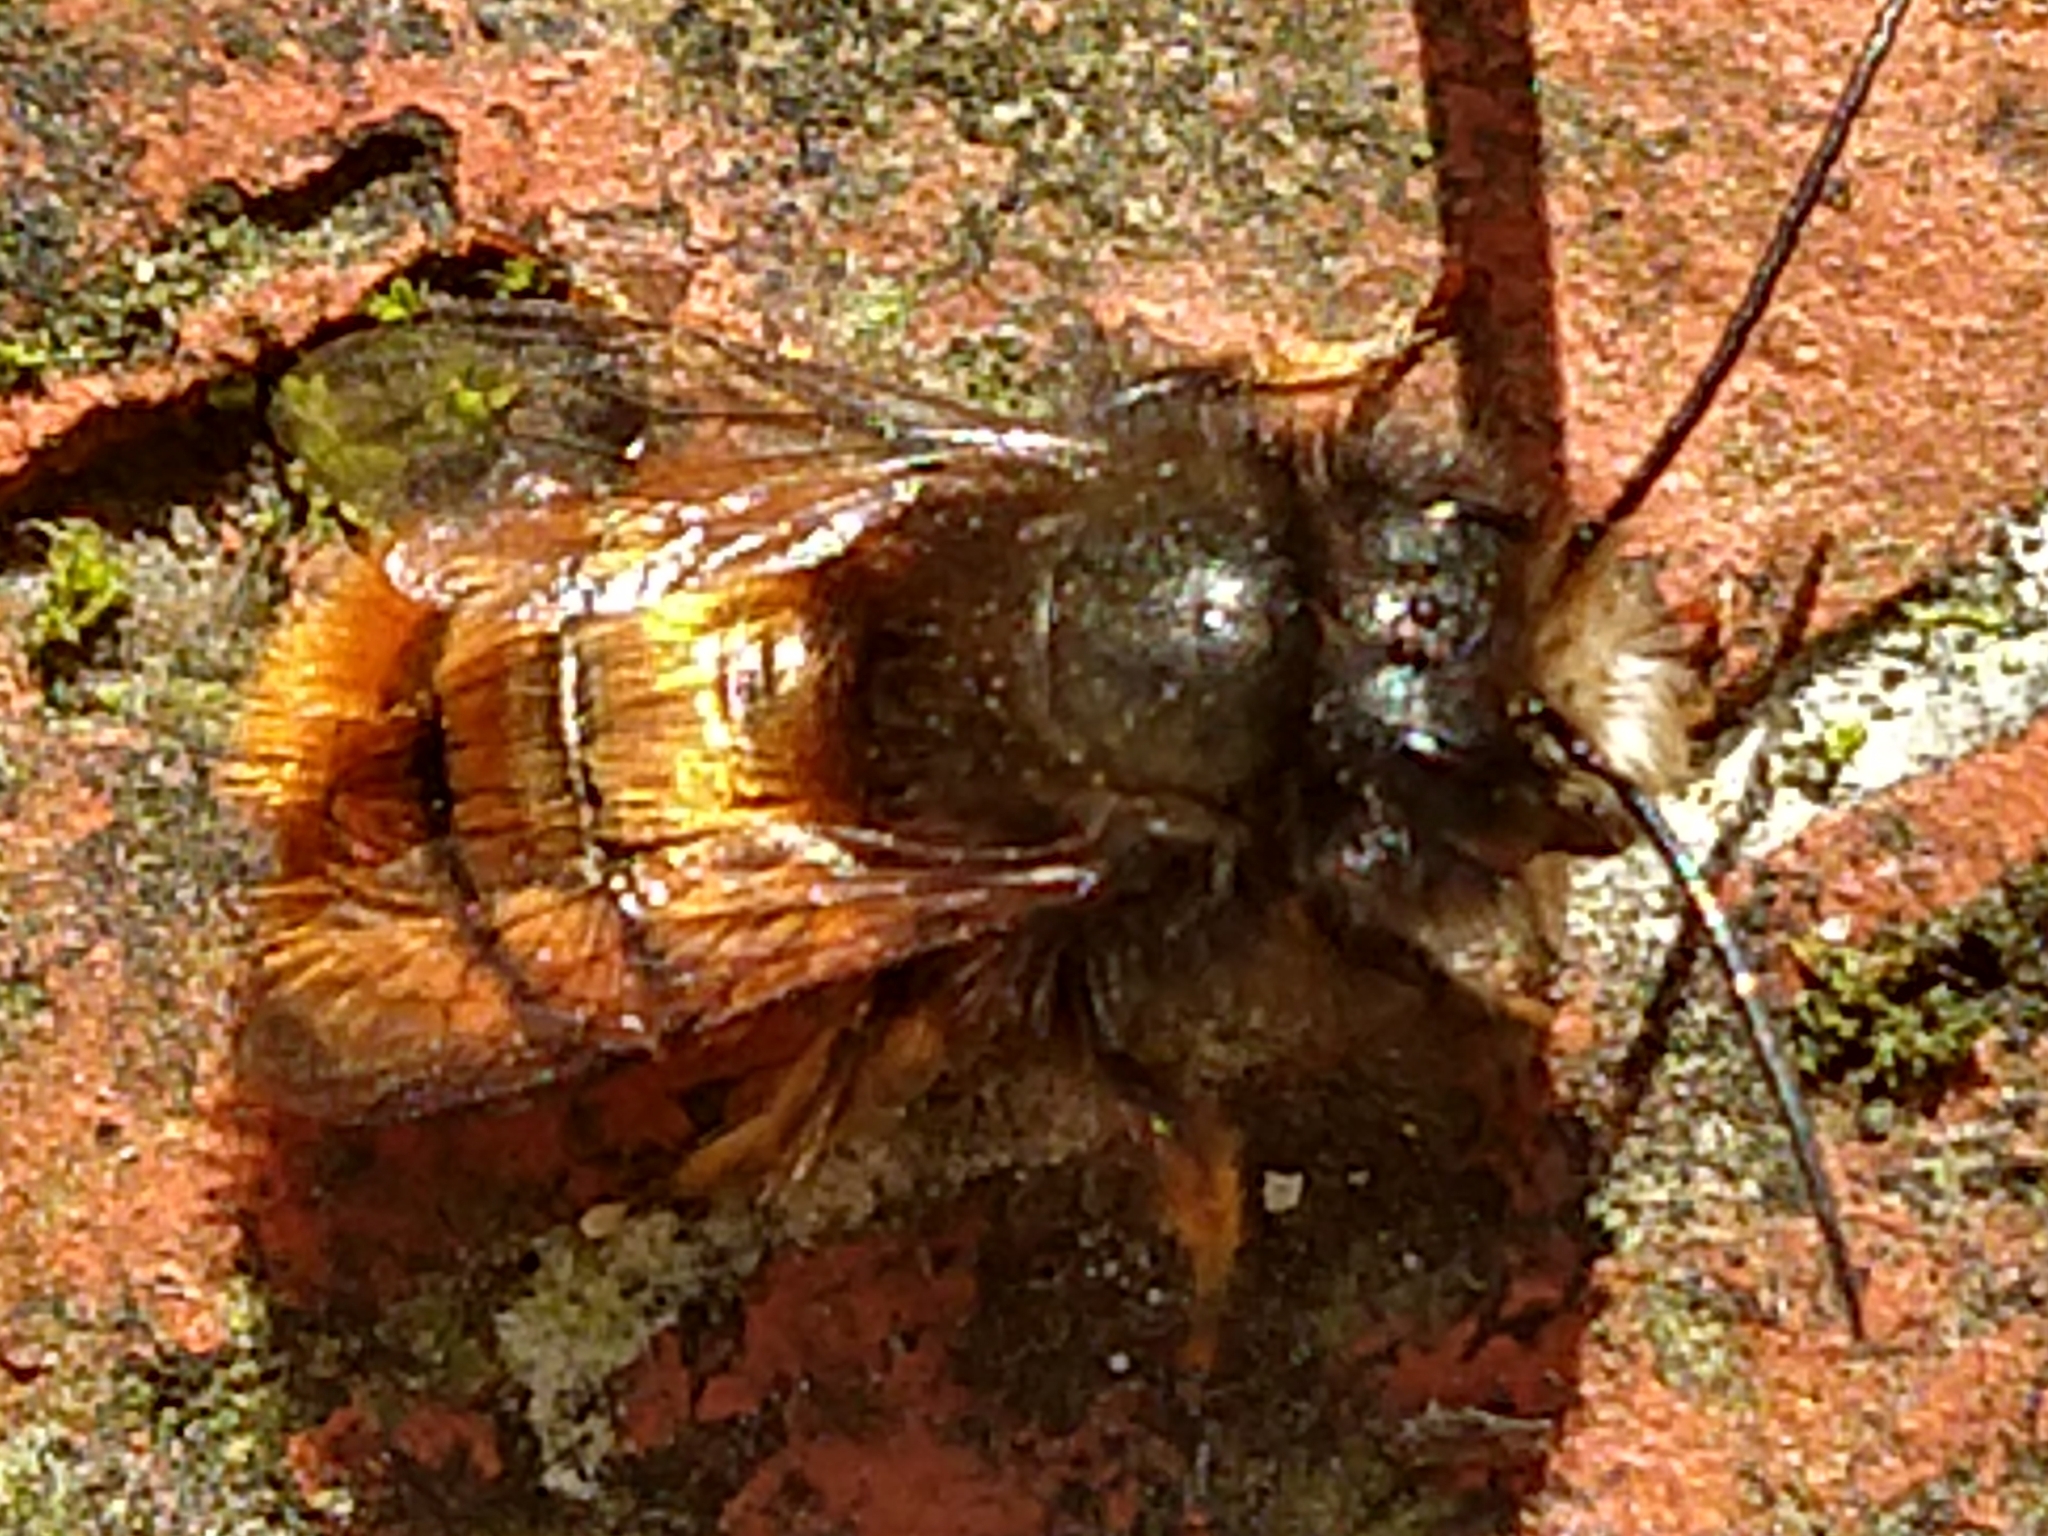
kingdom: Animalia
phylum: Arthropoda
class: Insecta
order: Hymenoptera
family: Megachilidae
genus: Osmia
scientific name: Osmia cornuta
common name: Mason bee
